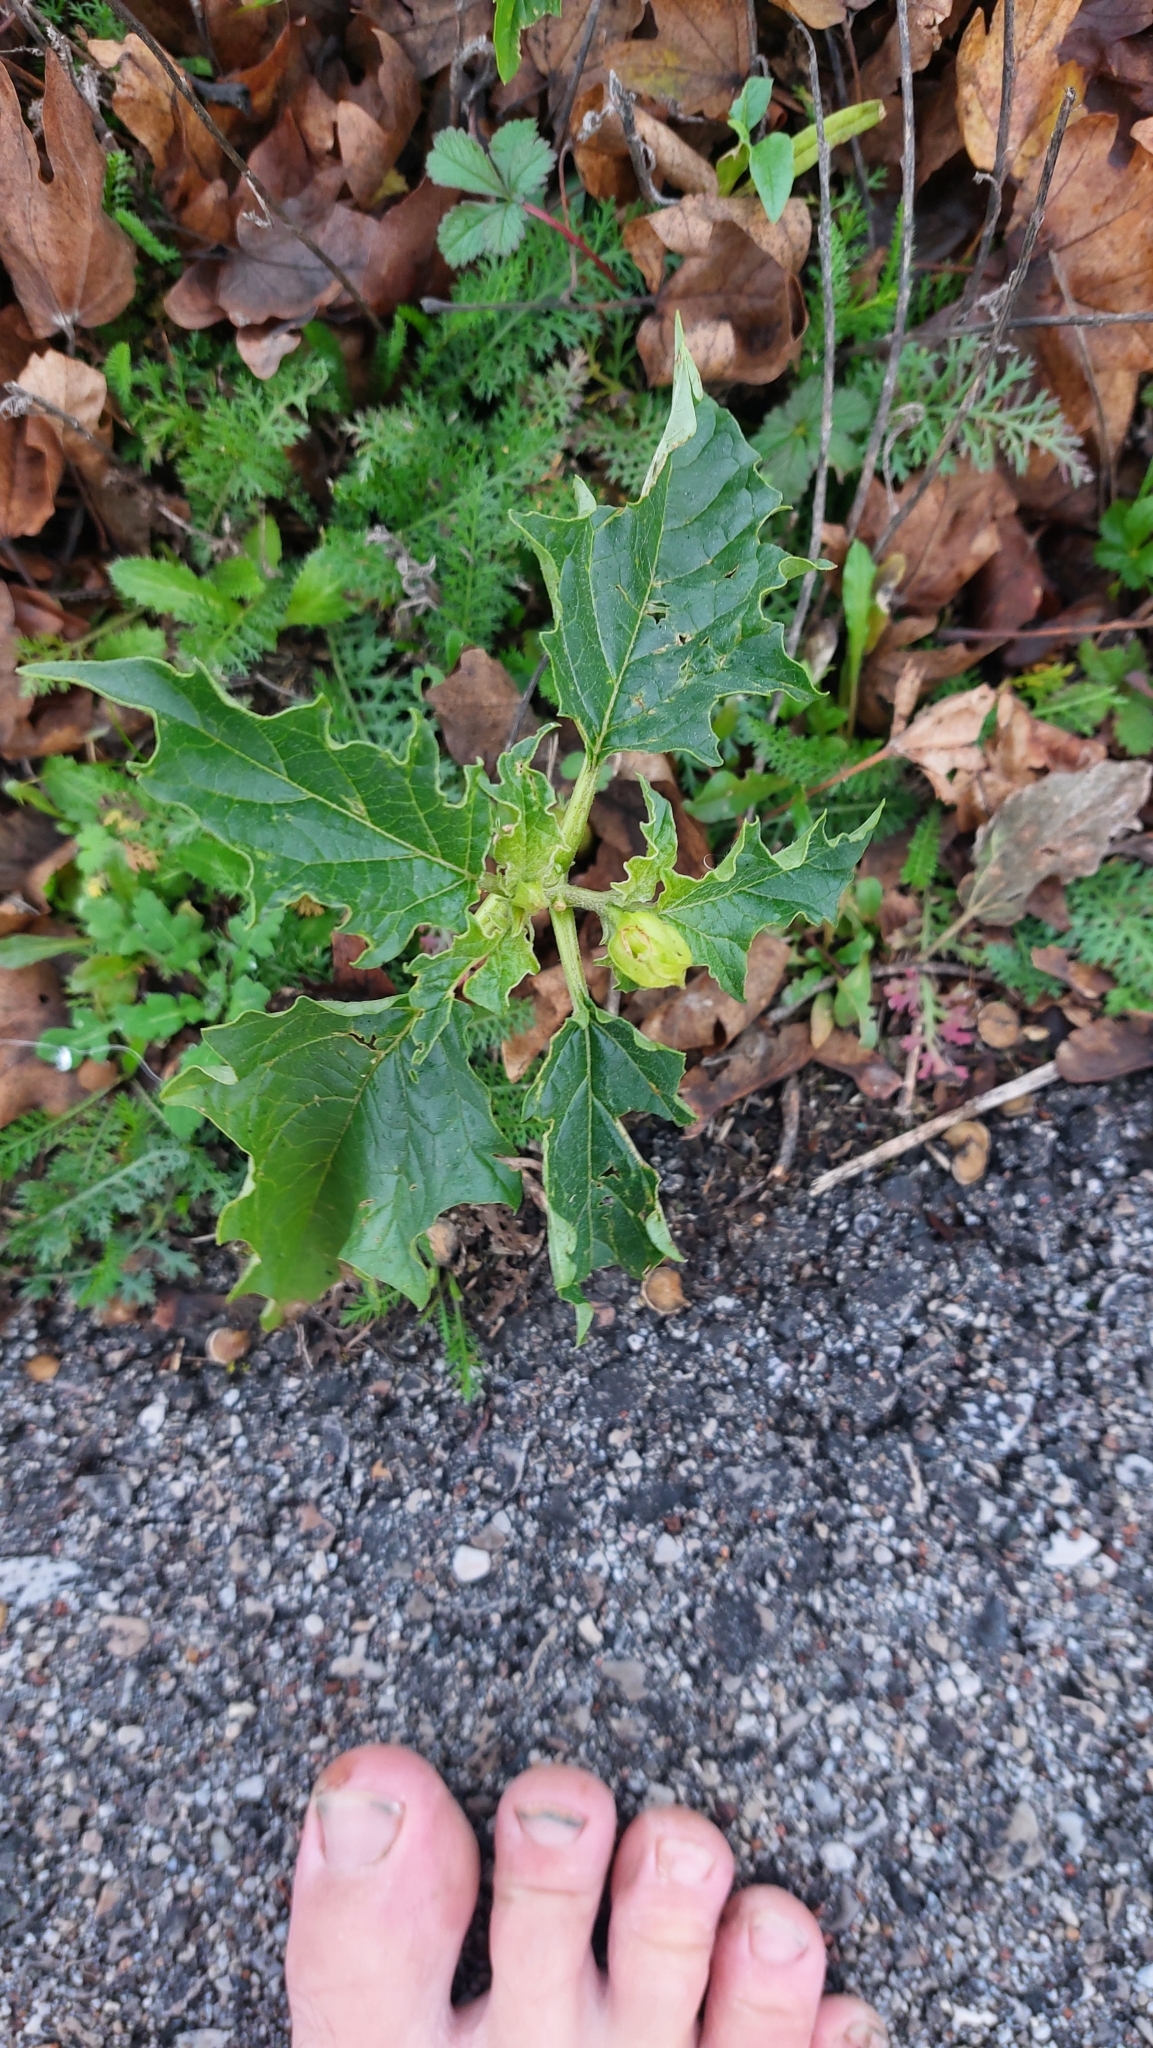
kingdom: Plantae
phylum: Tracheophyta
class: Magnoliopsida
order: Solanales
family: Solanaceae
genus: Datura
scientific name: Datura stramonium
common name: Thorn-apple
